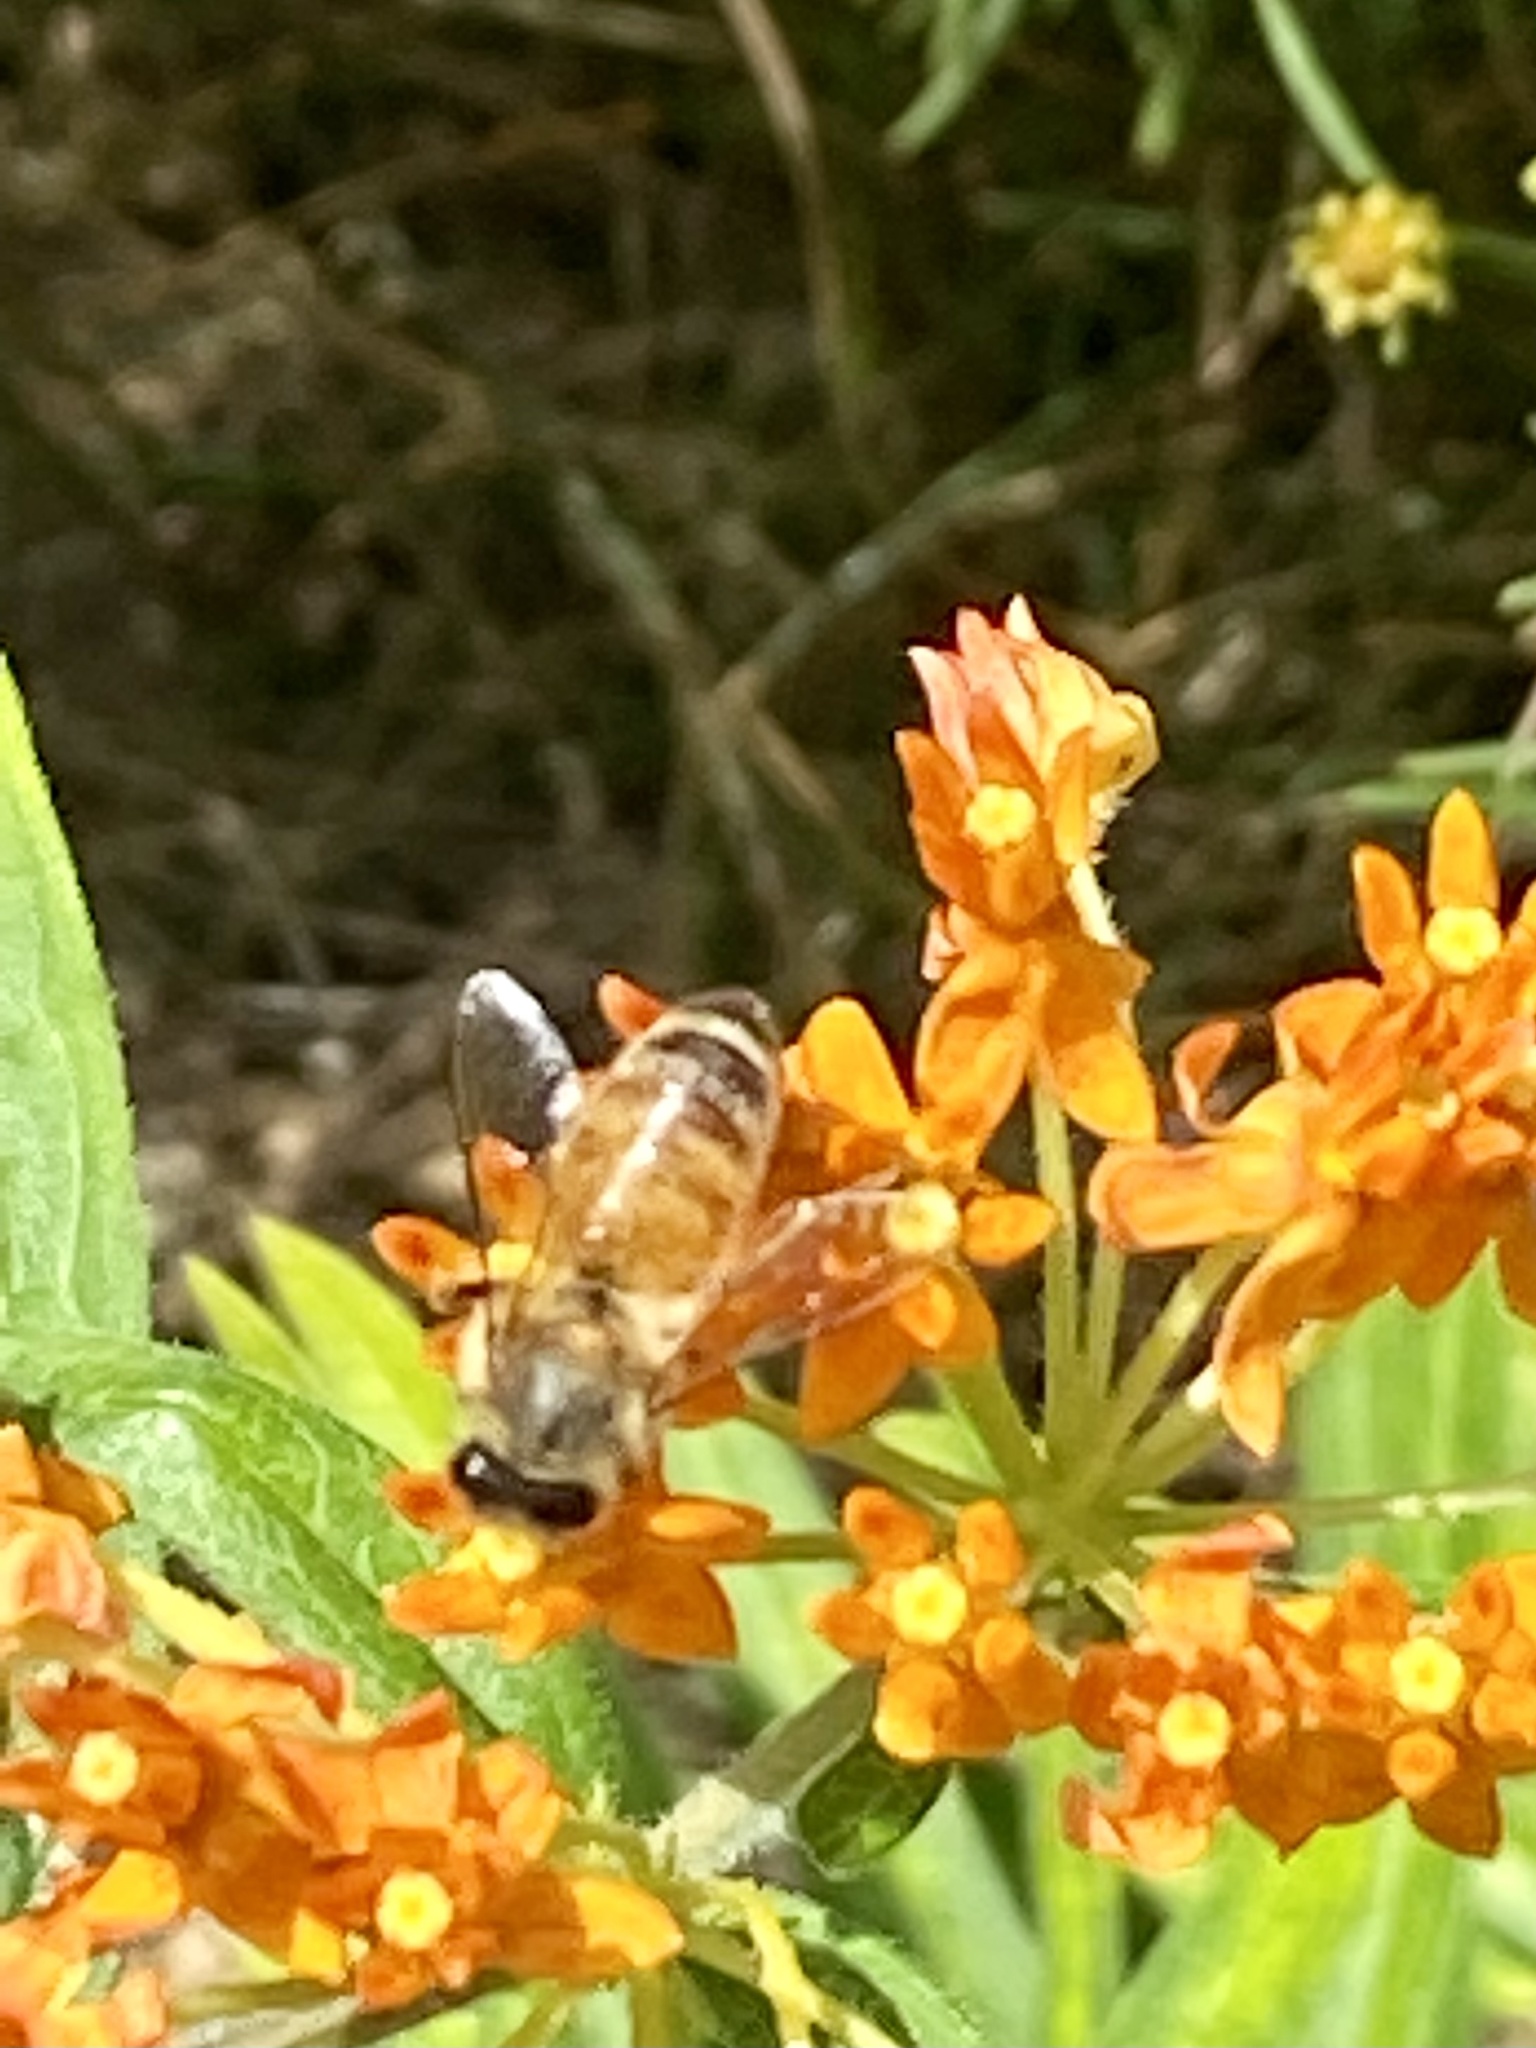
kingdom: Animalia
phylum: Arthropoda
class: Insecta
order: Hymenoptera
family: Apidae
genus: Apis
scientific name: Apis mellifera
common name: Honey bee
